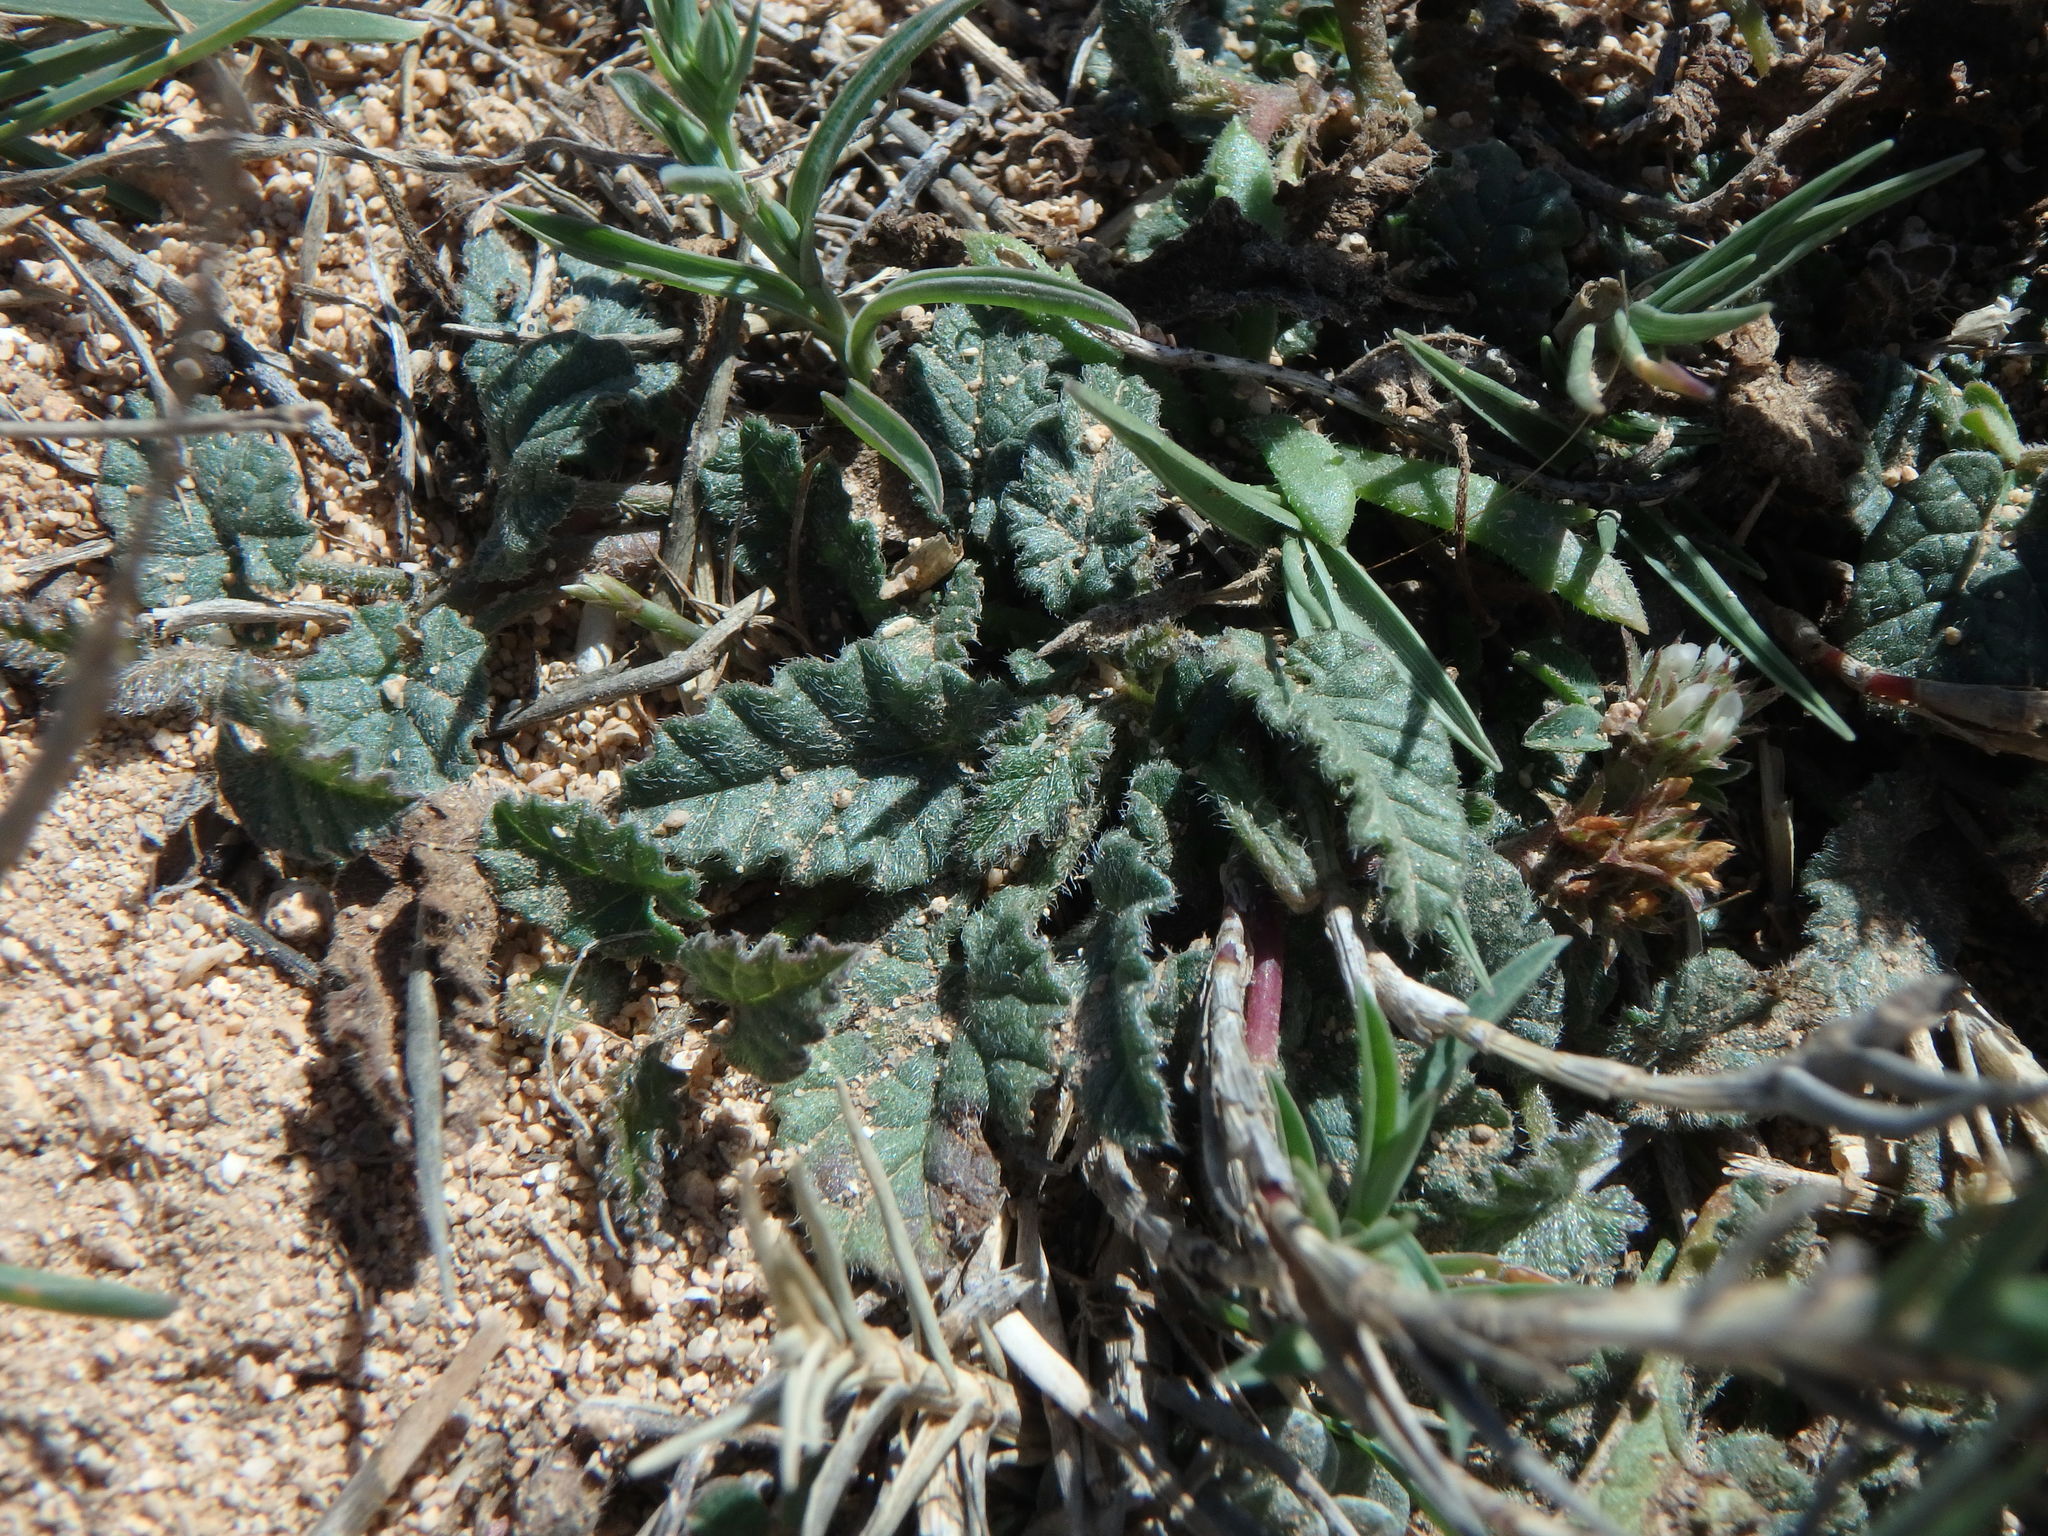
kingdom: Plantae
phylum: Tracheophyta
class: Magnoliopsida
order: Lamiales
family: Lamiaceae
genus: Salvia
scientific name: Salvia verbenaca
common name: Wild clary
